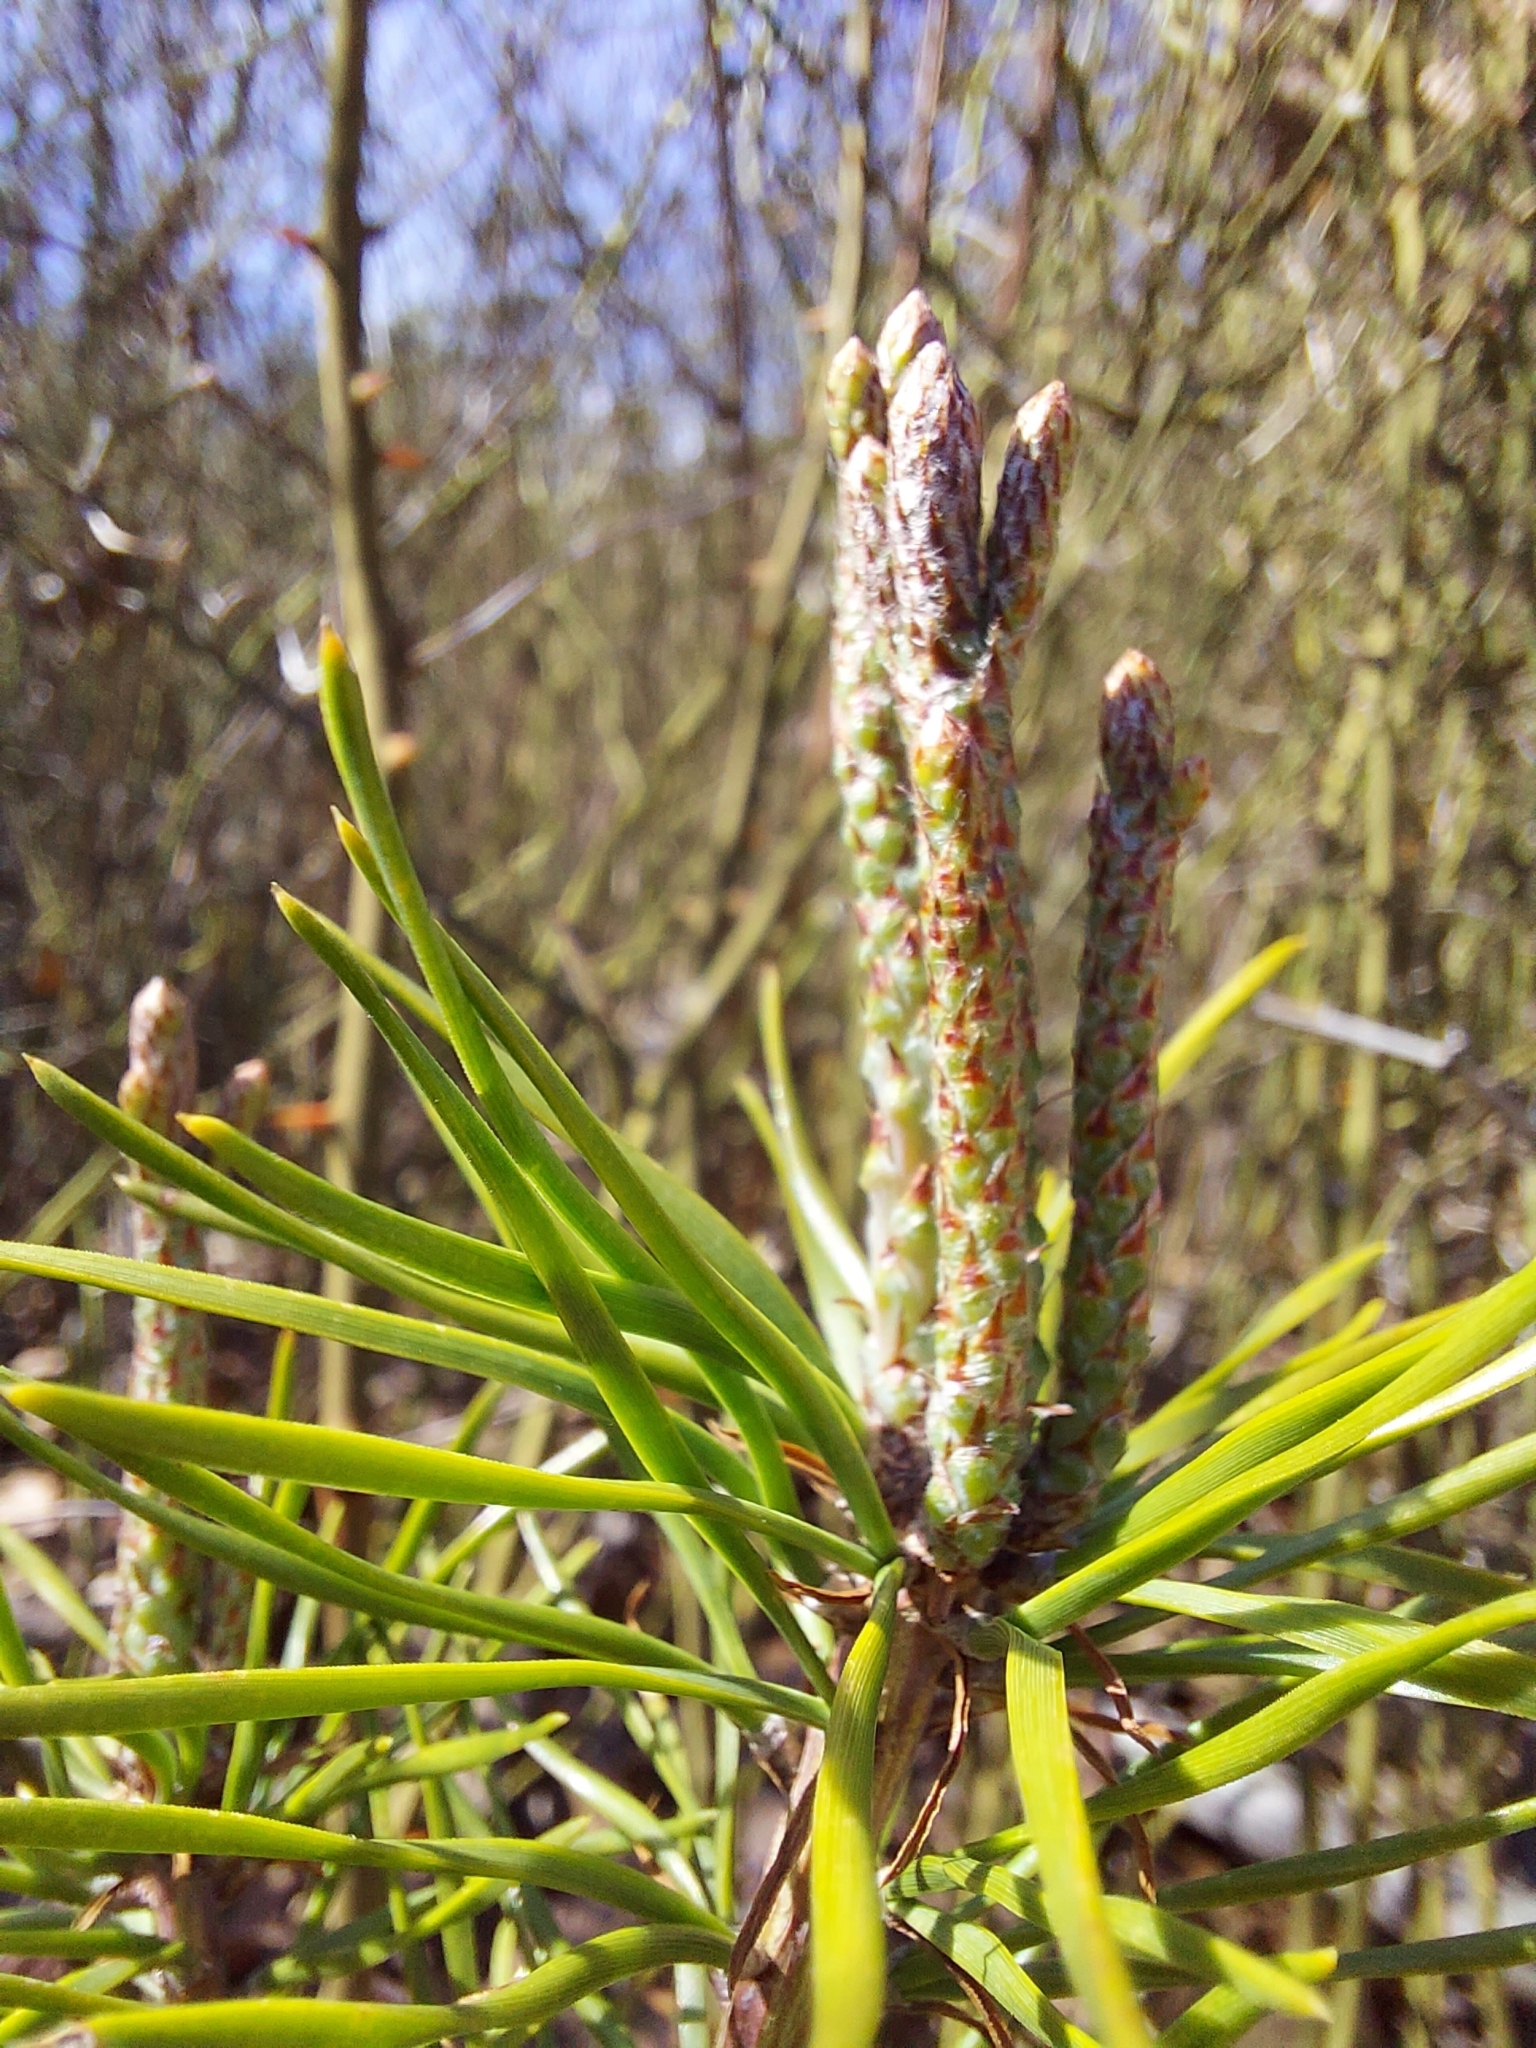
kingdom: Plantae
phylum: Tracheophyta
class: Pinopsida
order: Pinales
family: Pinaceae
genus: Pinus
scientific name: Pinus virginiana
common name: Scrub pine
